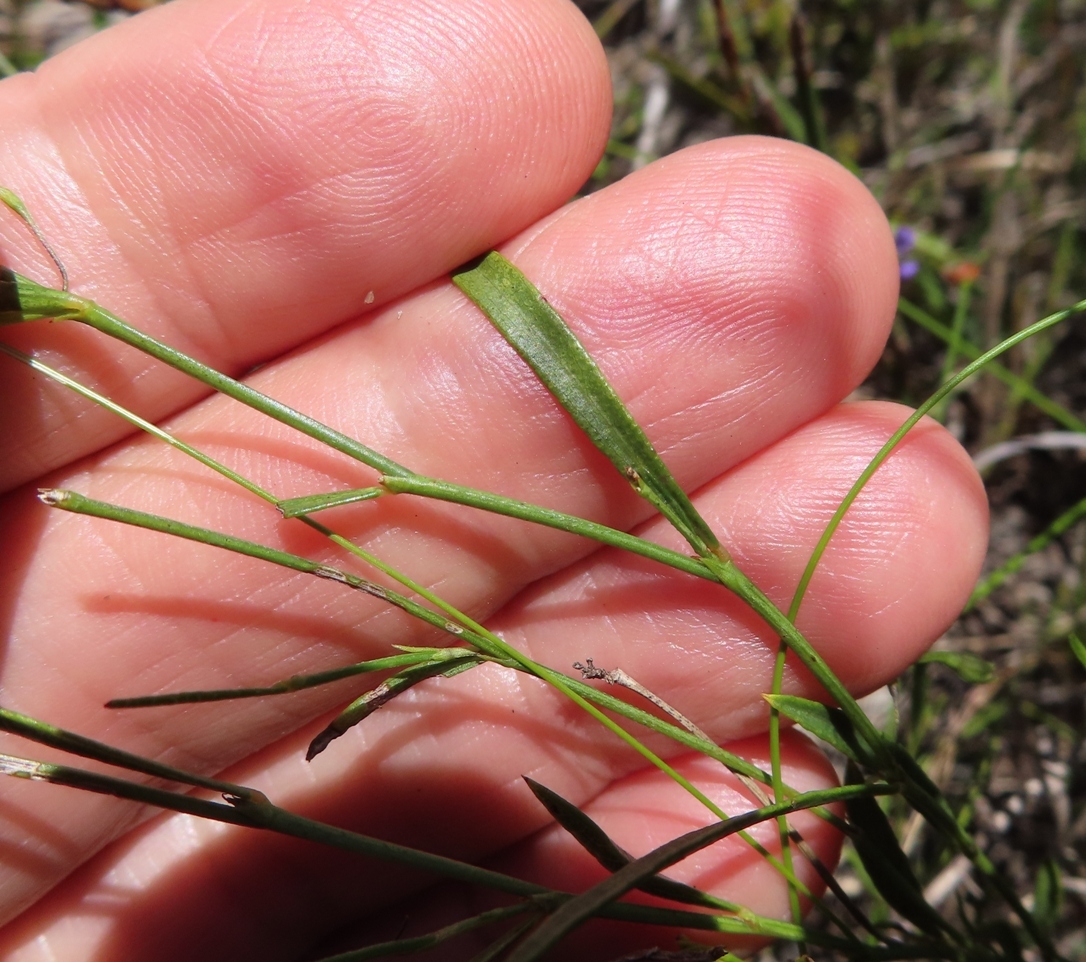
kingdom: Plantae
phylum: Tracheophyta
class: Magnoliopsida
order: Fabales
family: Fabaceae
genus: Psoralea
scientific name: Psoralea laxa
